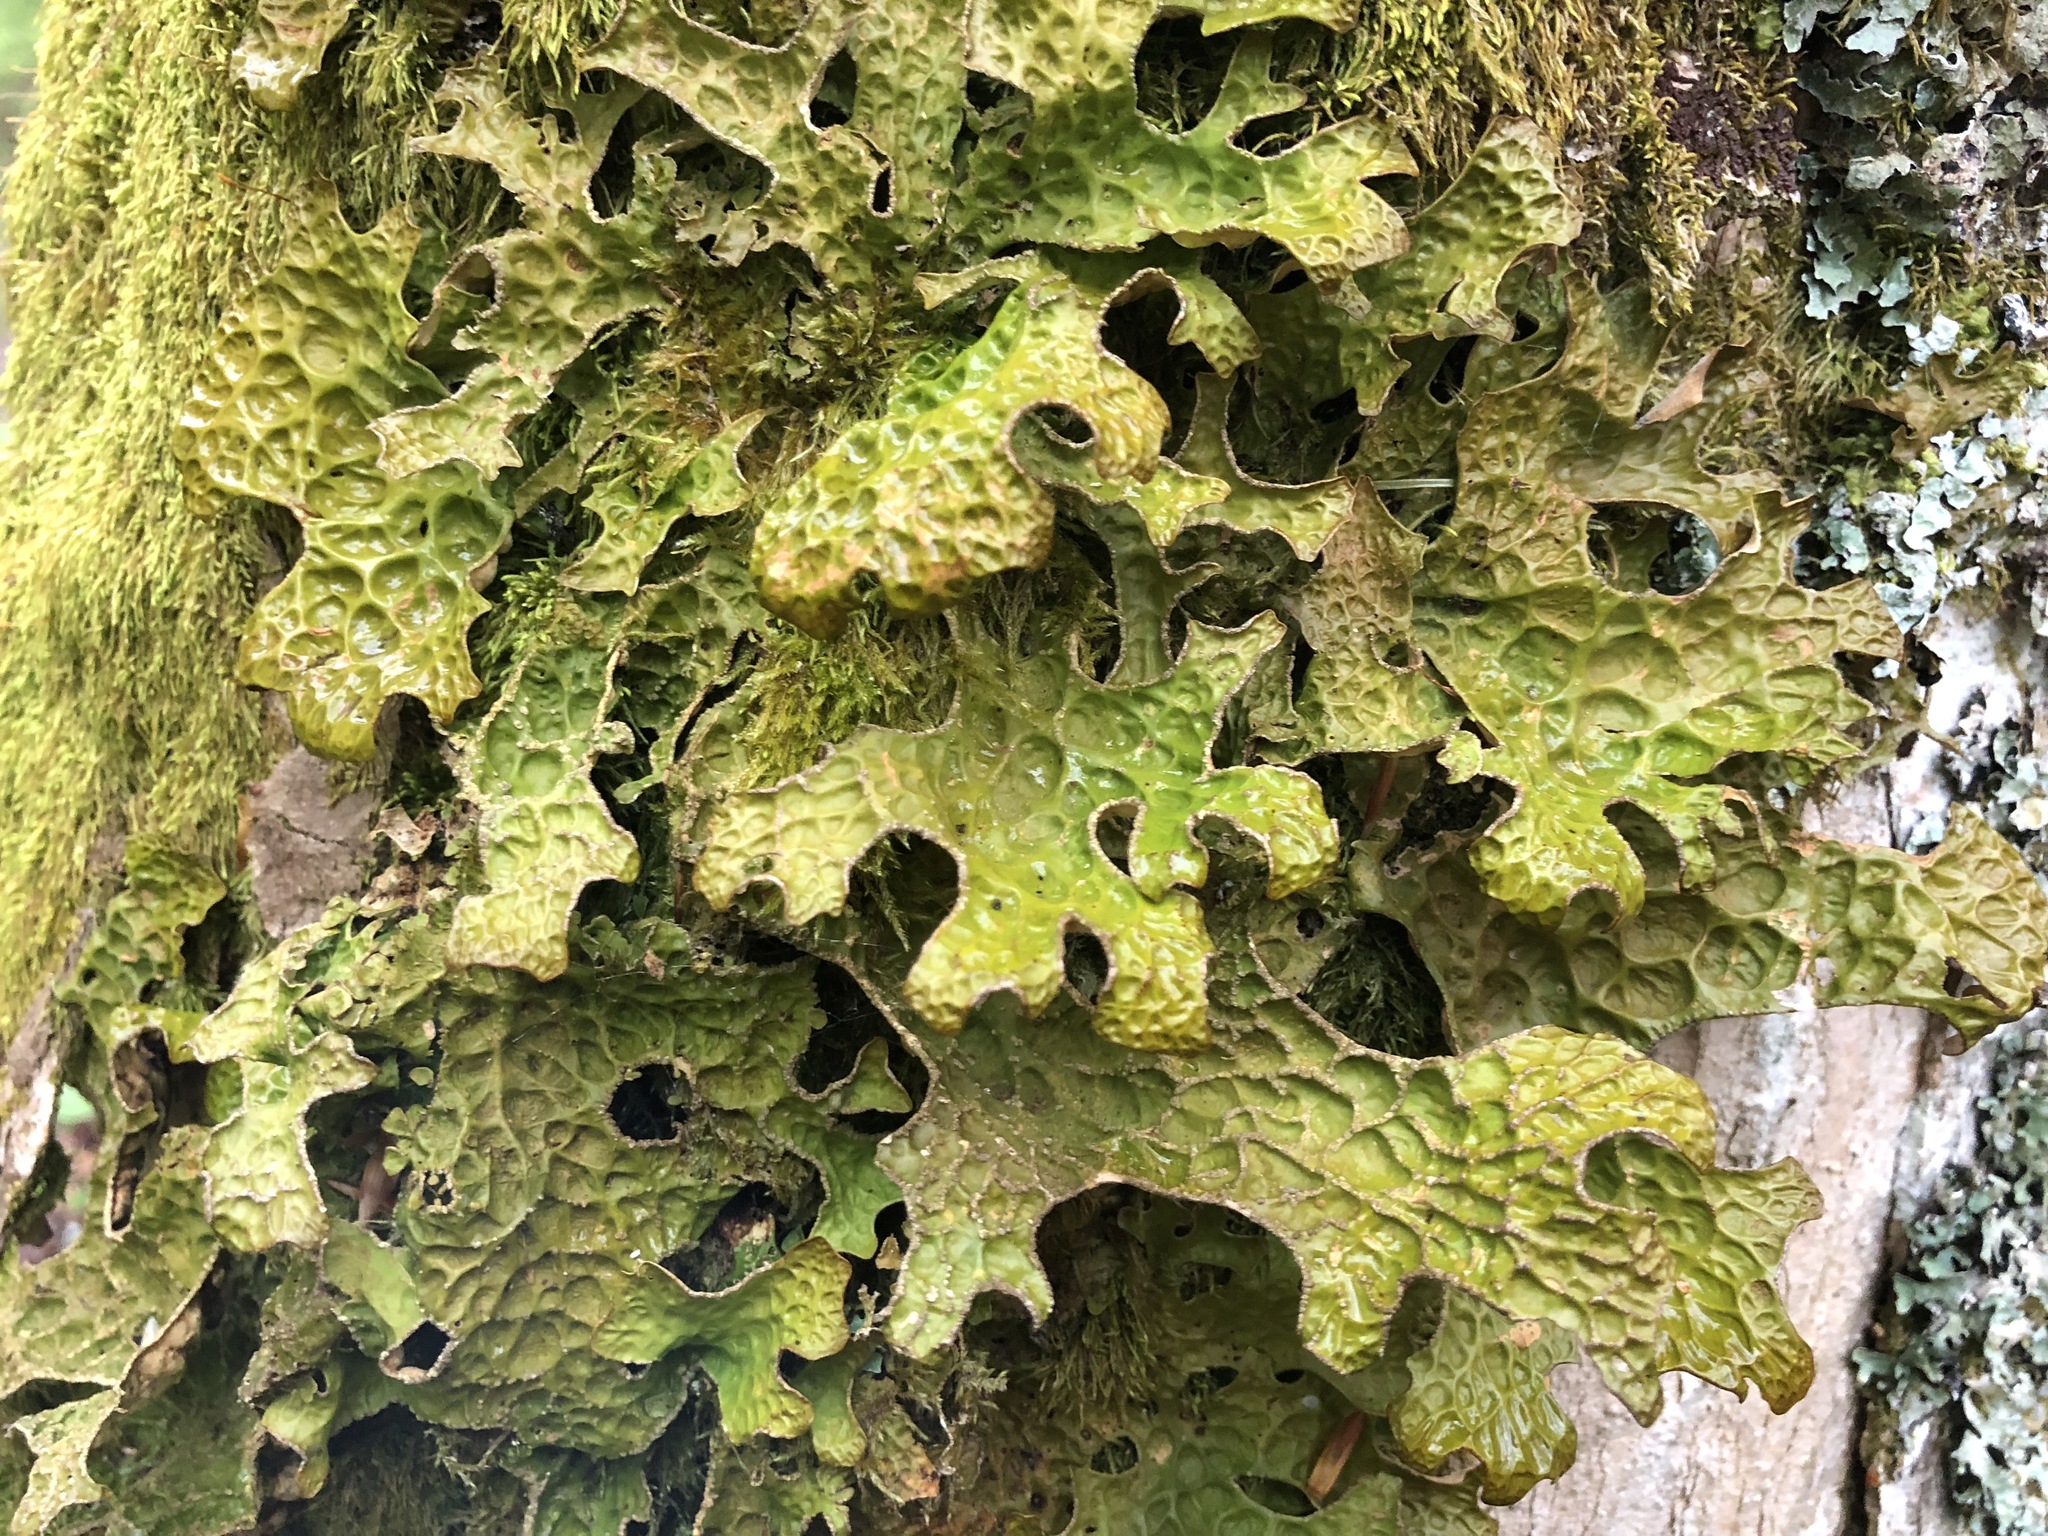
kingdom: Fungi
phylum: Ascomycota
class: Lecanoromycetes
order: Peltigerales
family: Lobariaceae
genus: Lobaria
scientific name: Lobaria pulmonaria
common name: Lungwort
